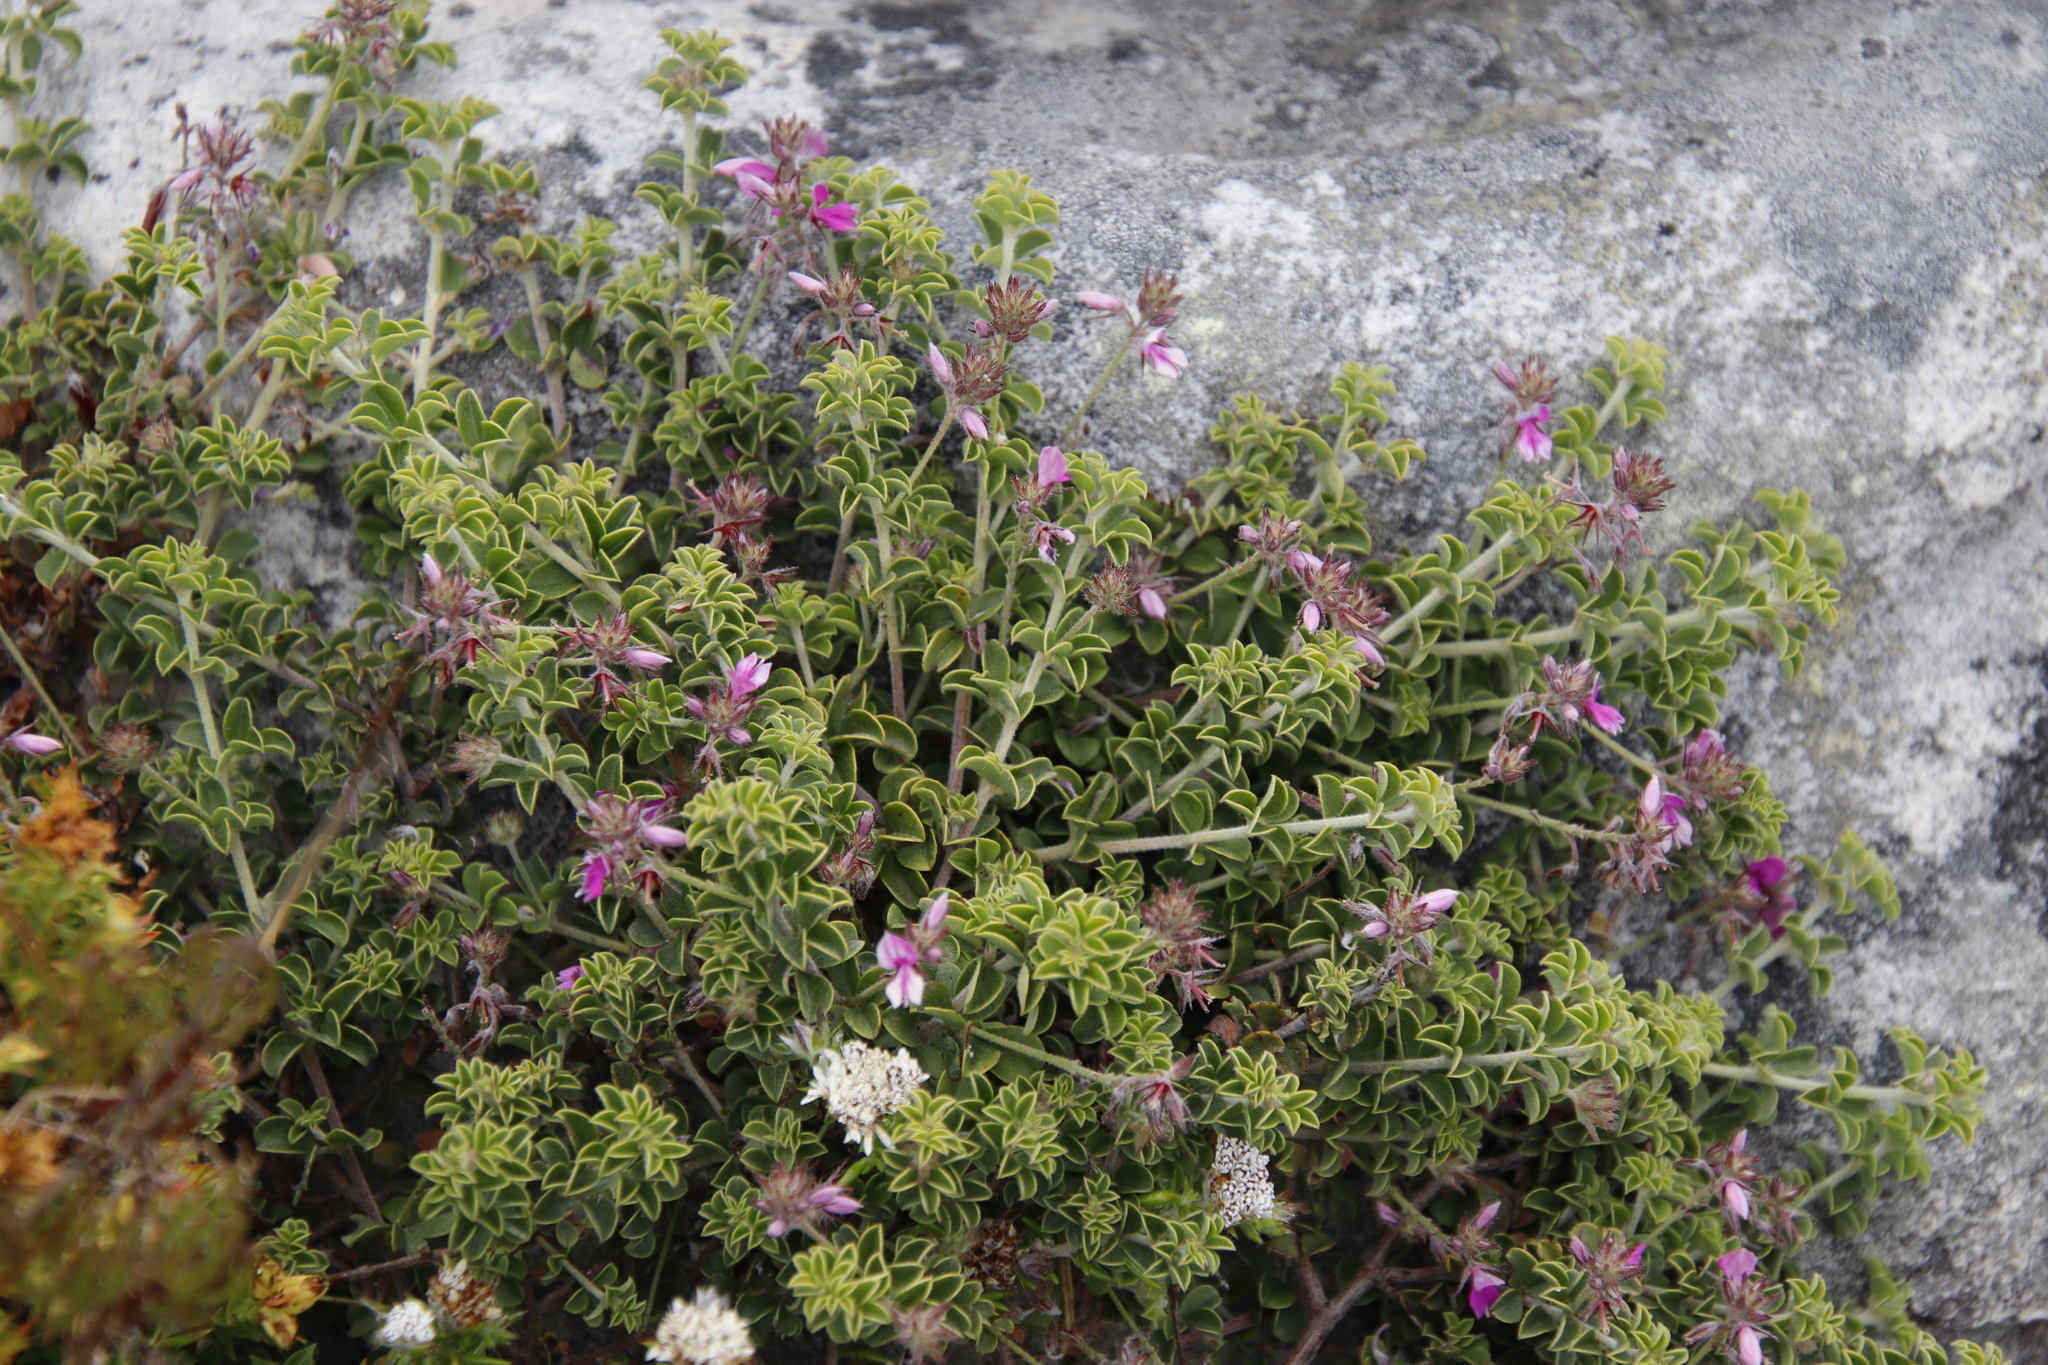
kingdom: Plantae
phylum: Tracheophyta
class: Magnoliopsida
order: Fabales
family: Fabaceae
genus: Indigofera
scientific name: Indigofera candolleana
